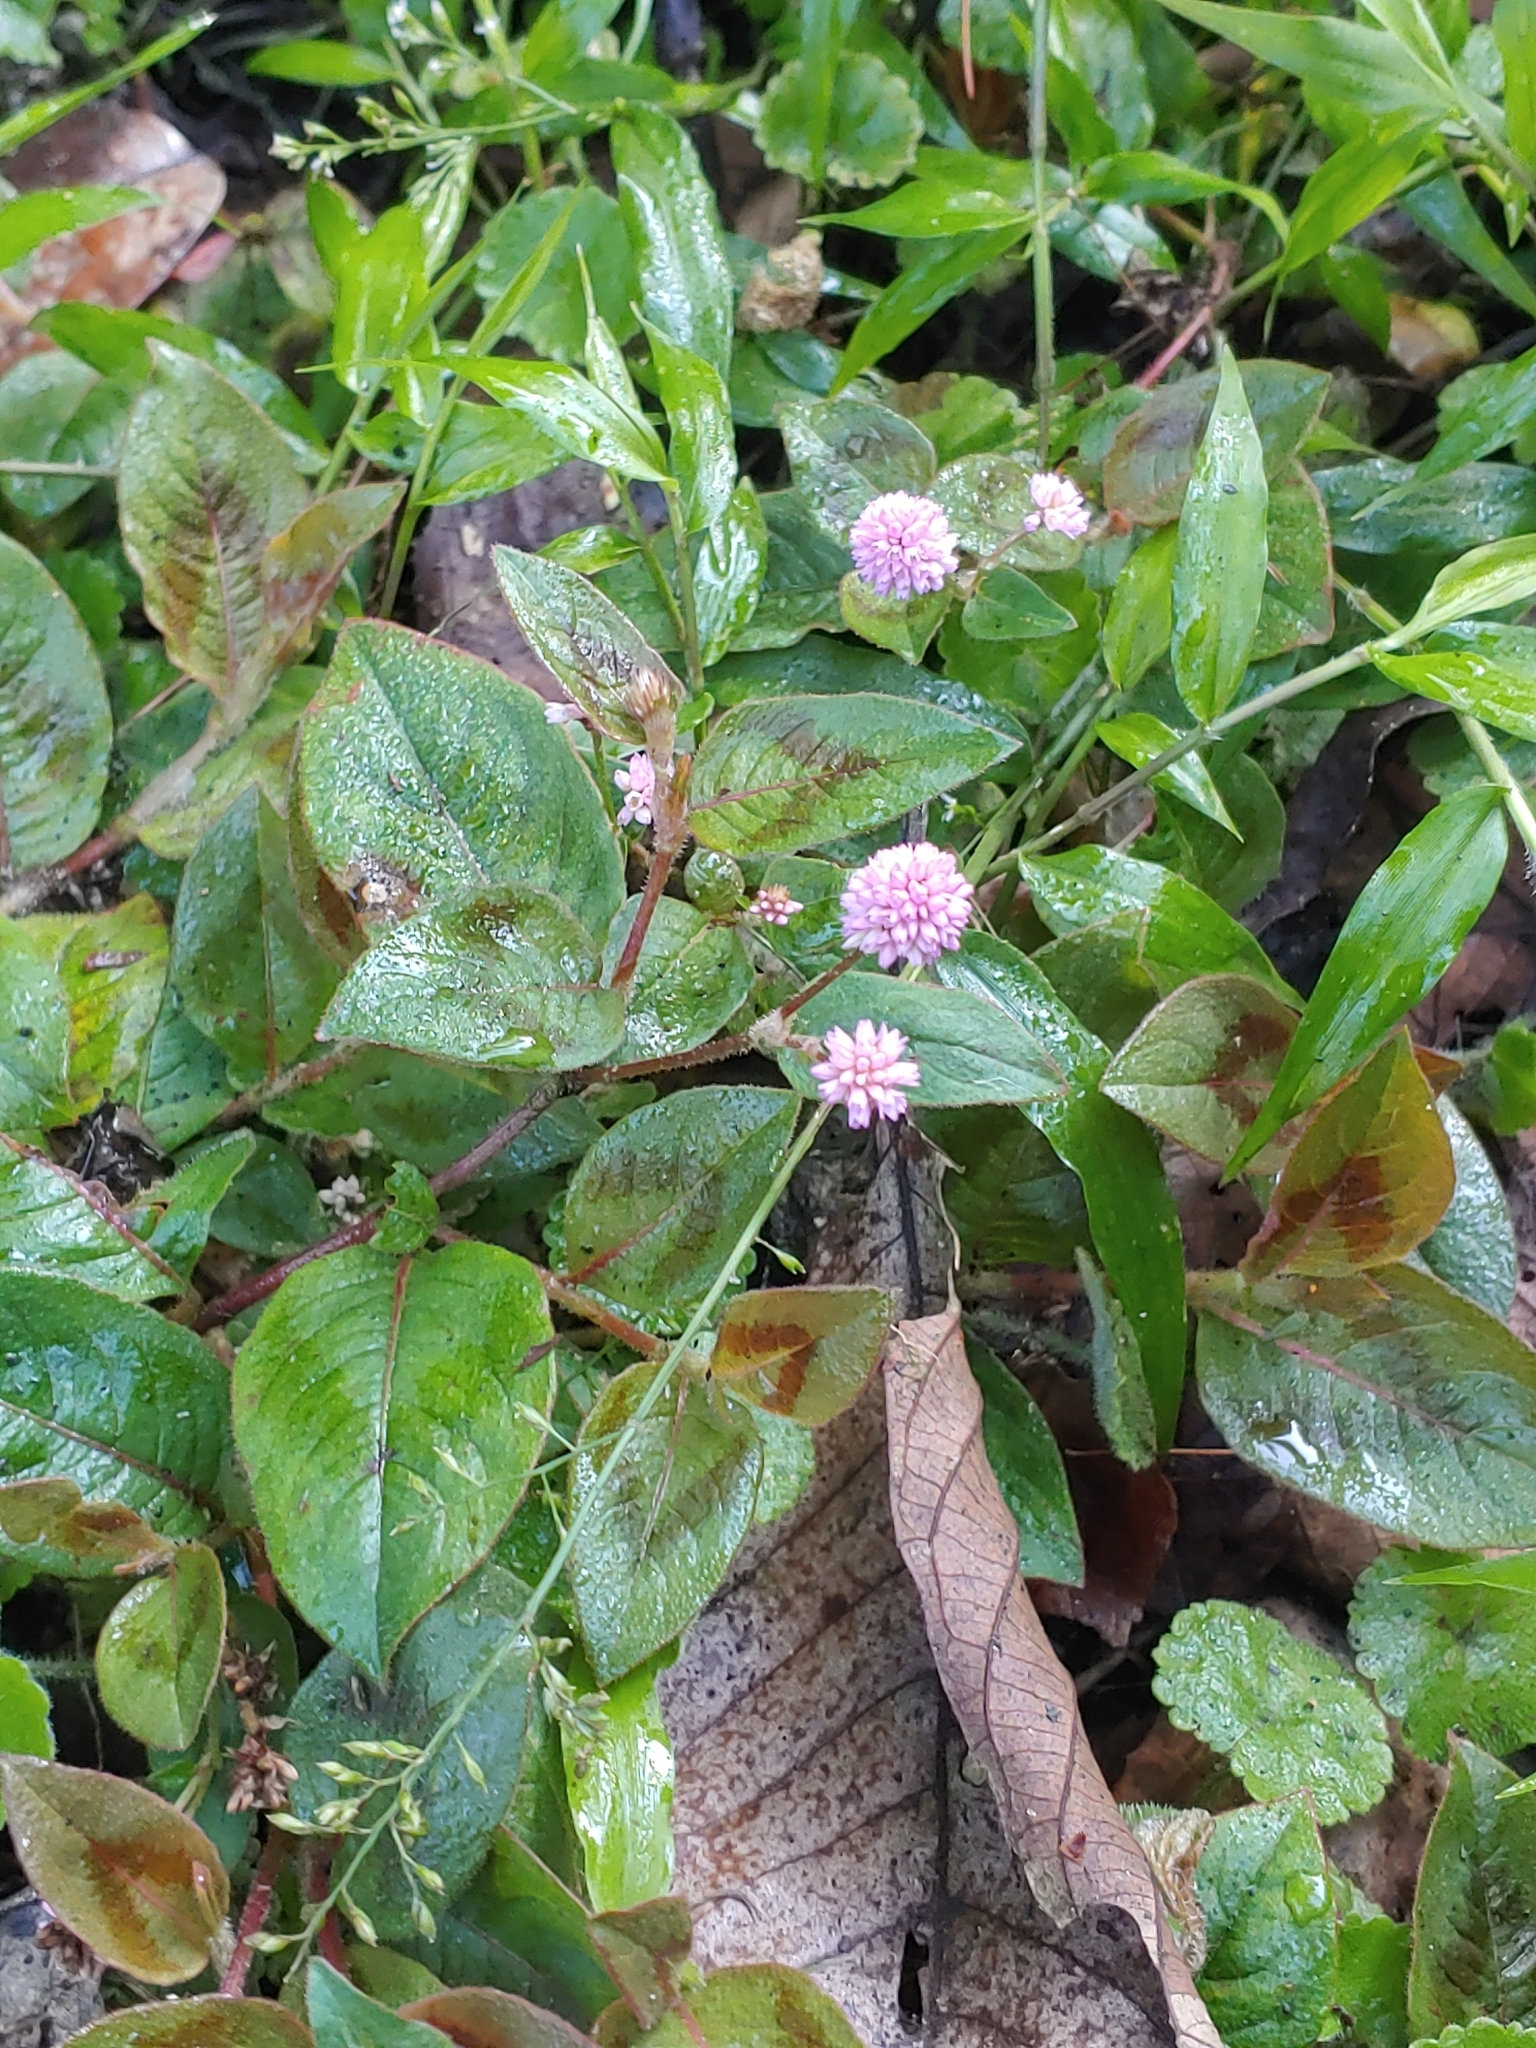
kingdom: Plantae
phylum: Tracheophyta
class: Magnoliopsida
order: Caryophyllales
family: Polygonaceae
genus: Persicaria
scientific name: Persicaria capitata
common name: Pinkhead smartweed
